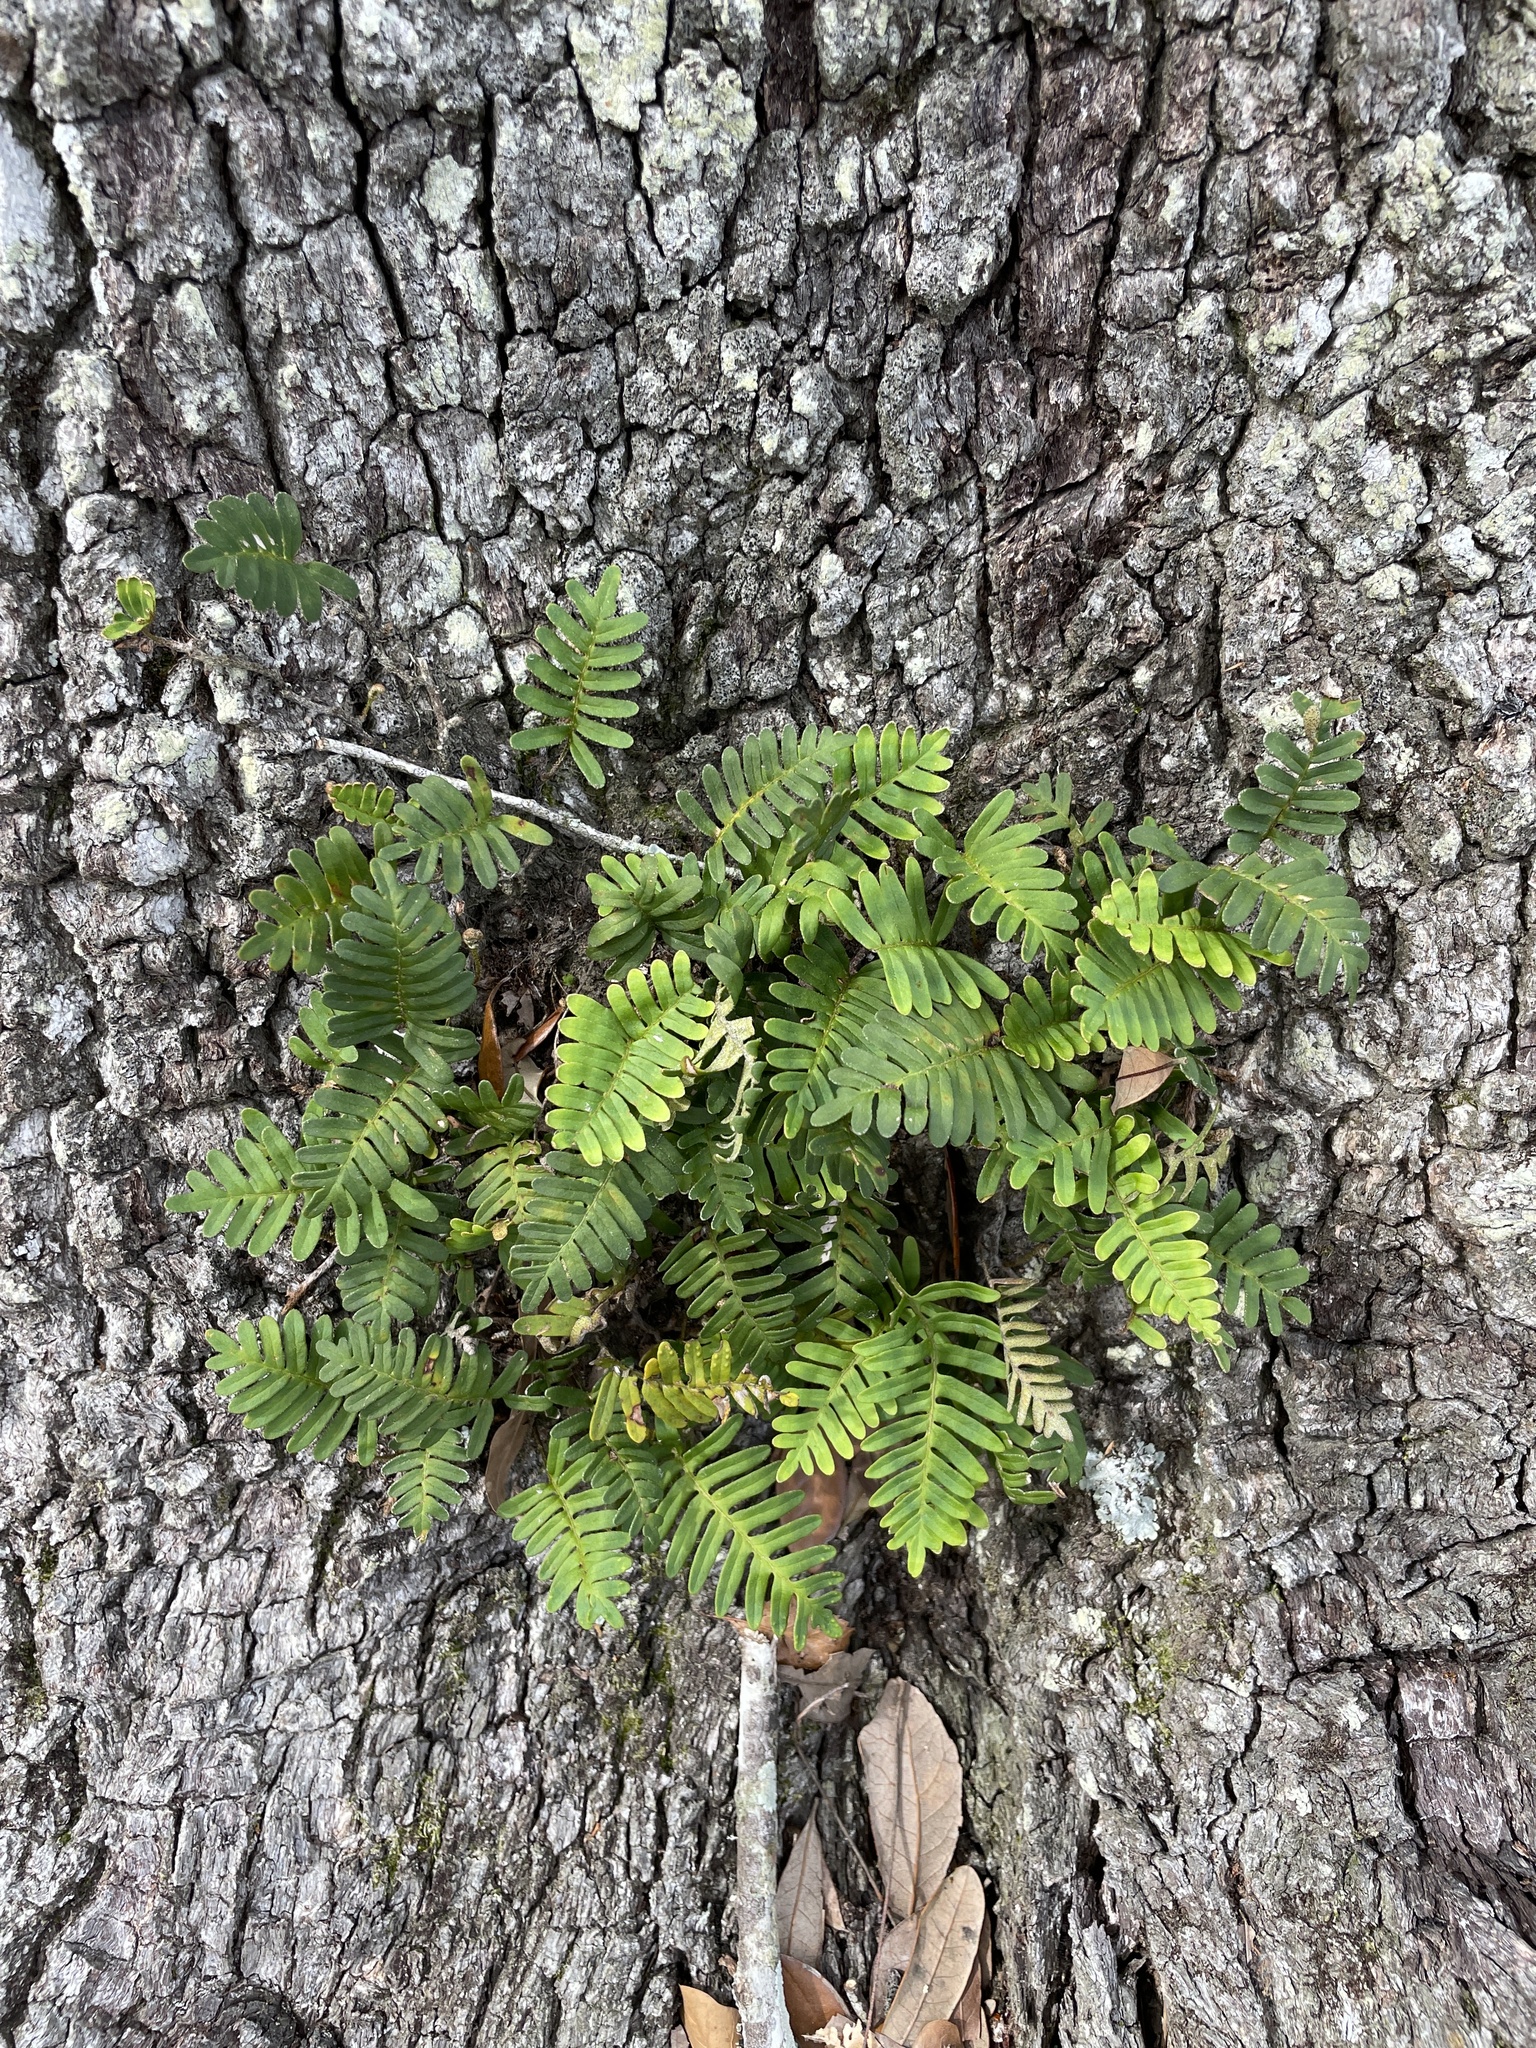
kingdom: Plantae
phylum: Tracheophyta
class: Polypodiopsida
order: Polypodiales
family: Polypodiaceae
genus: Pleopeltis
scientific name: Pleopeltis michauxiana
